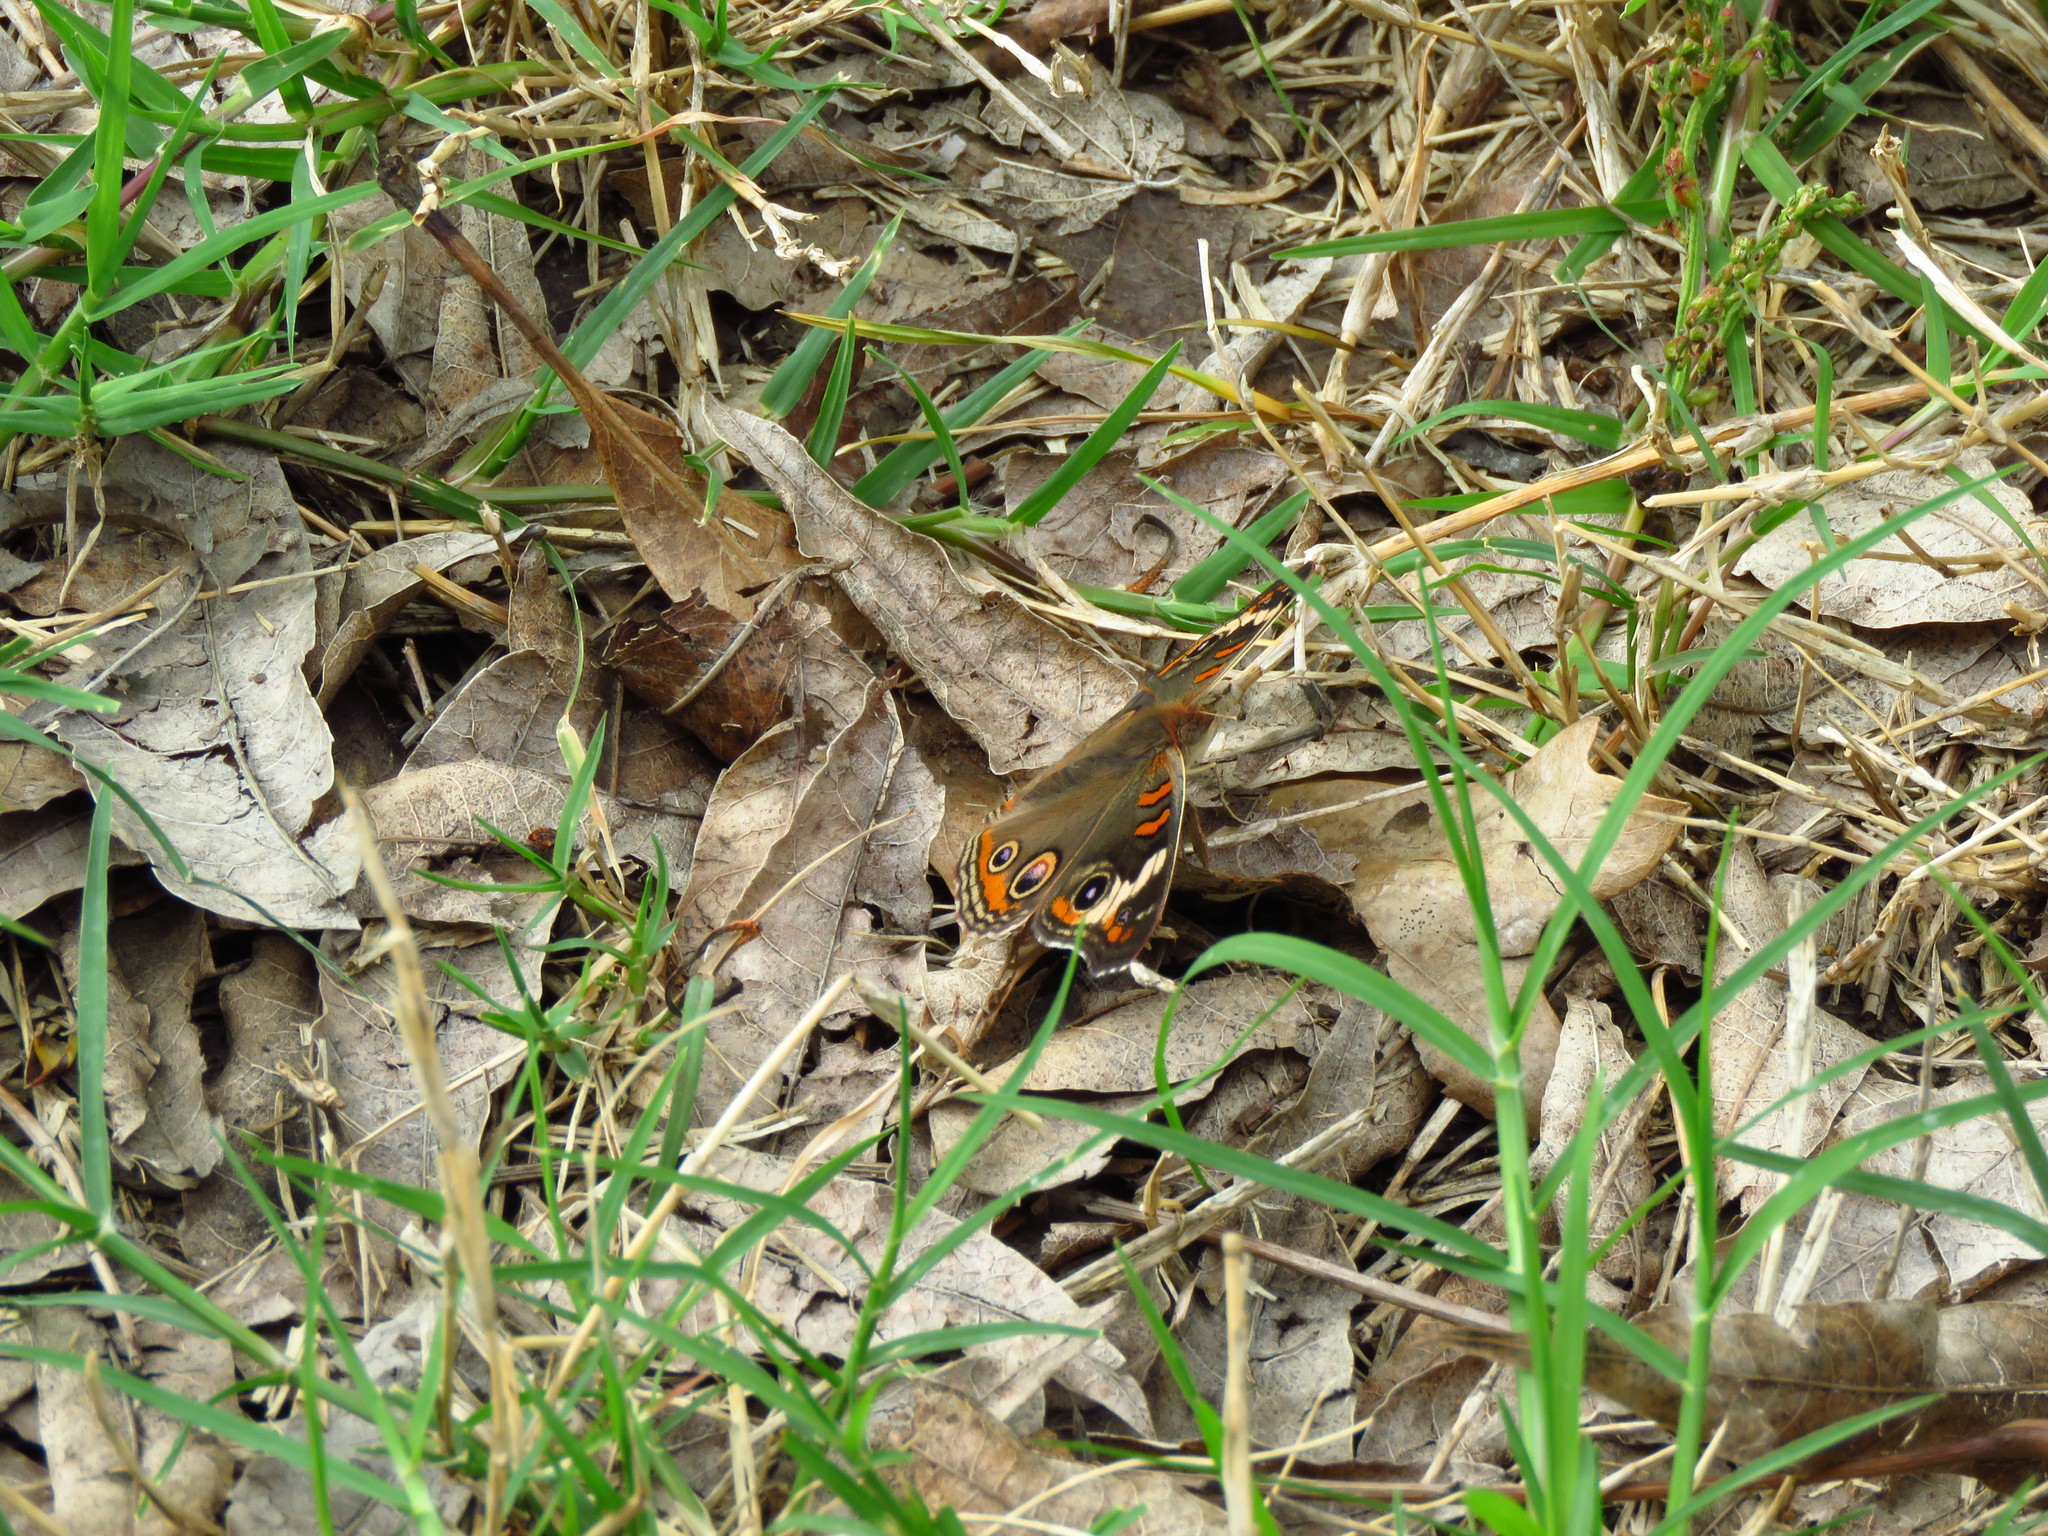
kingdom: Animalia
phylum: Arthropoda
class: Insecta
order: Lepidoptera
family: Nymphalidae
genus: Junonia
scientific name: Junonia coenia
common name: Common buckeye
